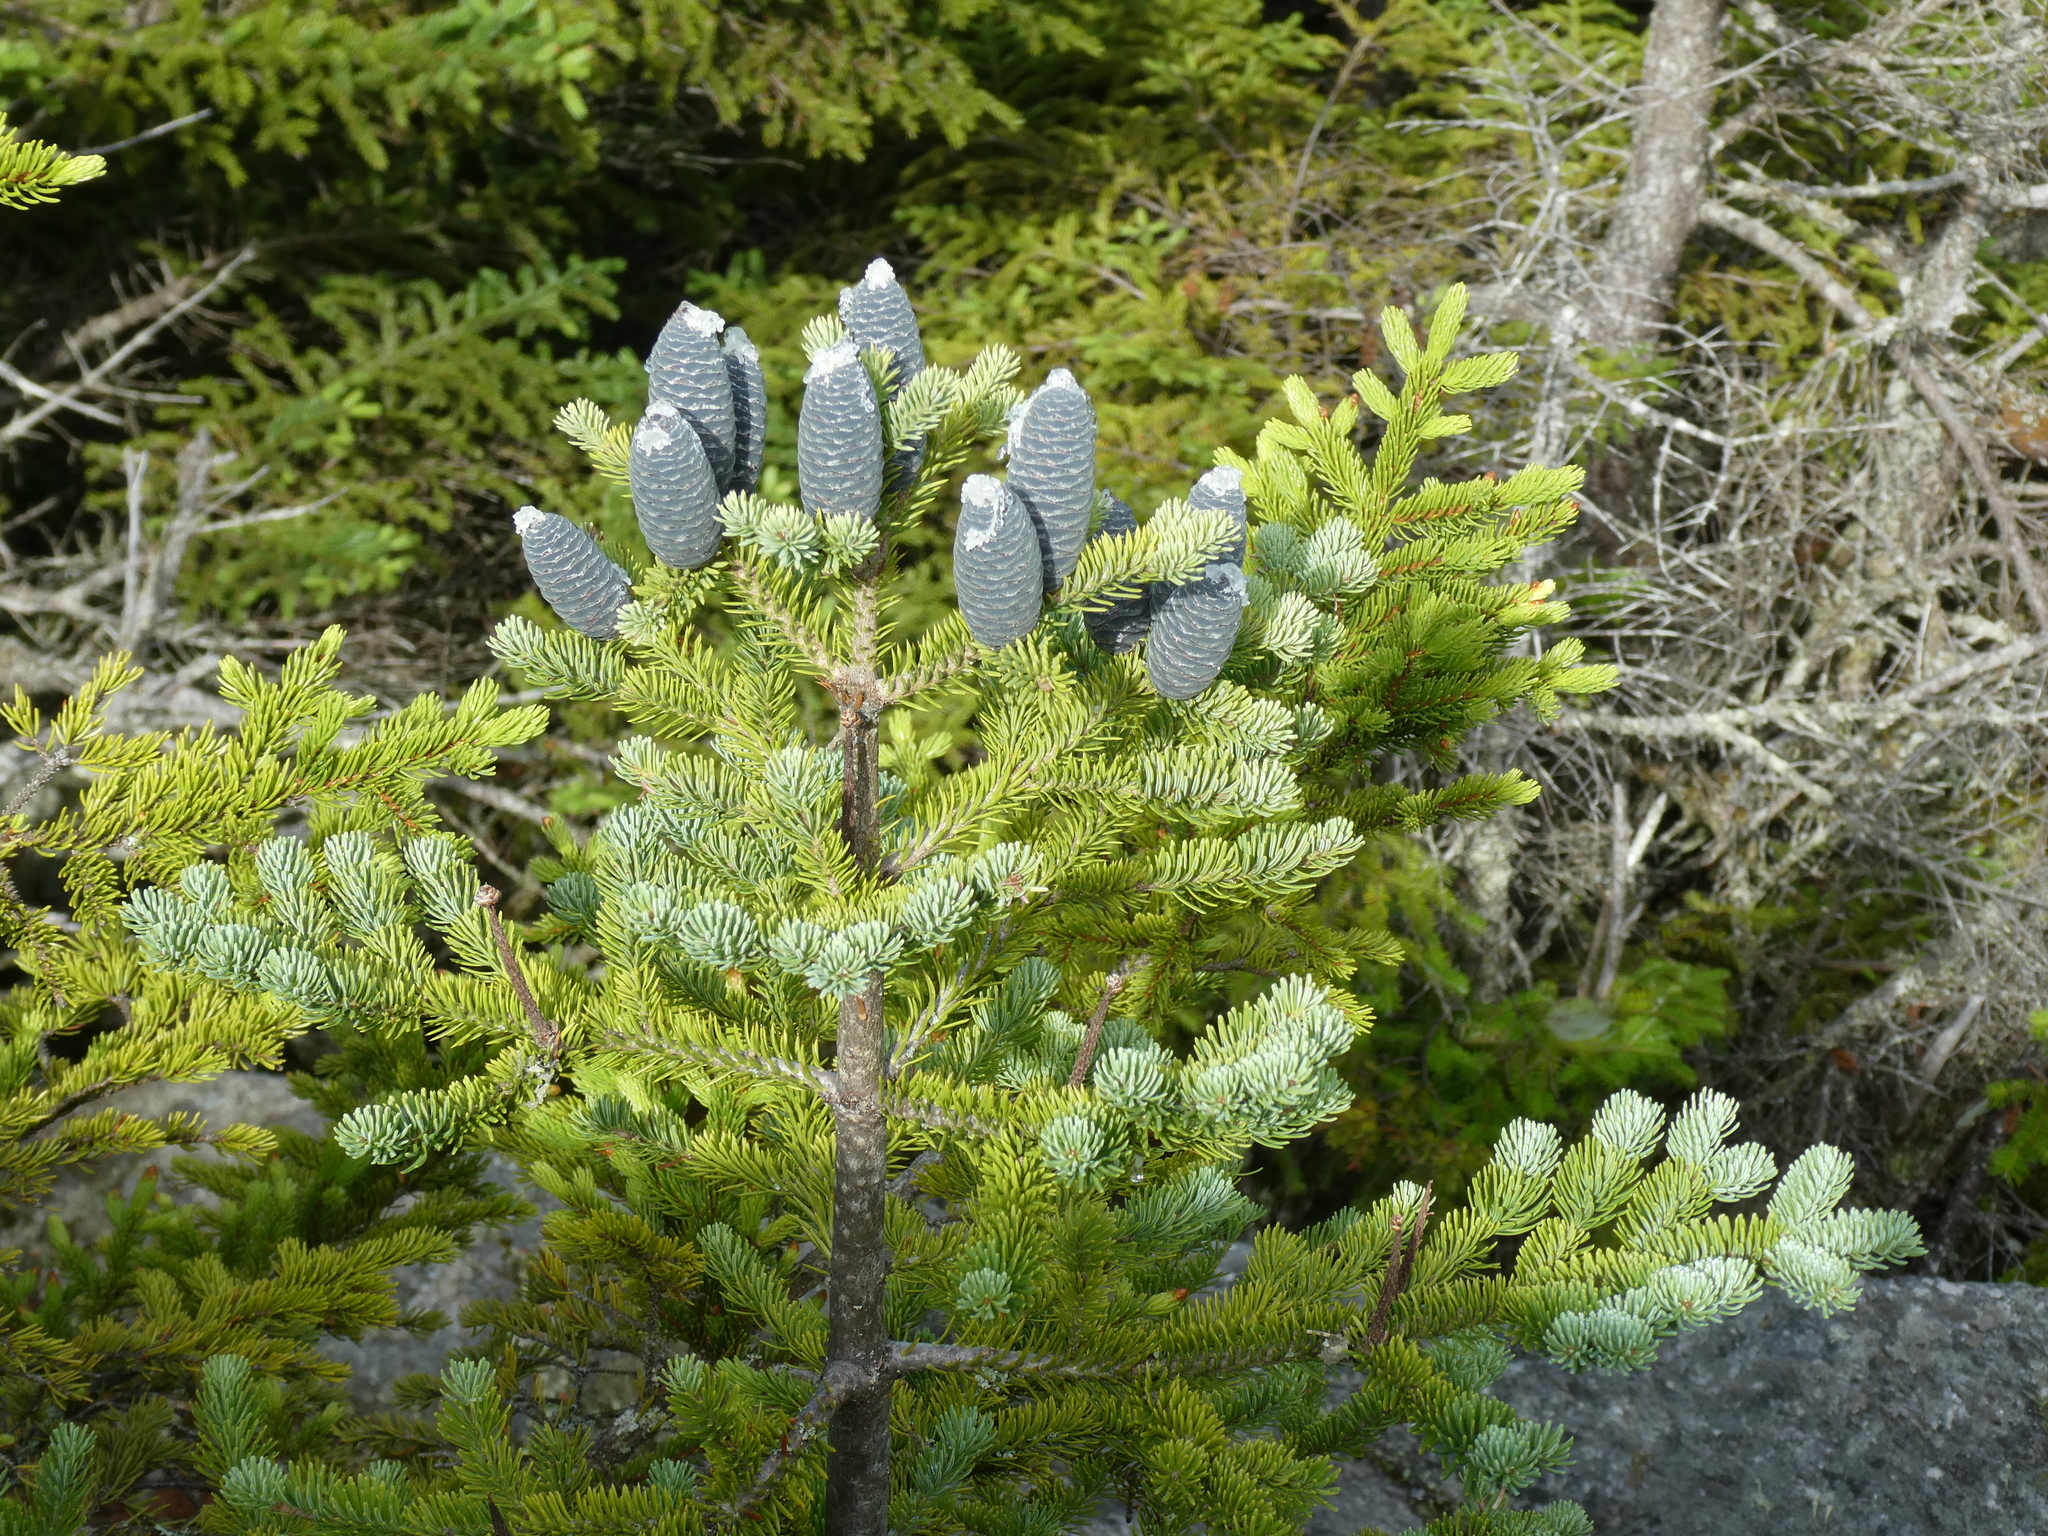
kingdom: Plantae
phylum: Tracheophyta
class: Pinopsida
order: Pinales
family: Pinaceae
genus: Abies
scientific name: Abies balsamea
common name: Balsam fir
